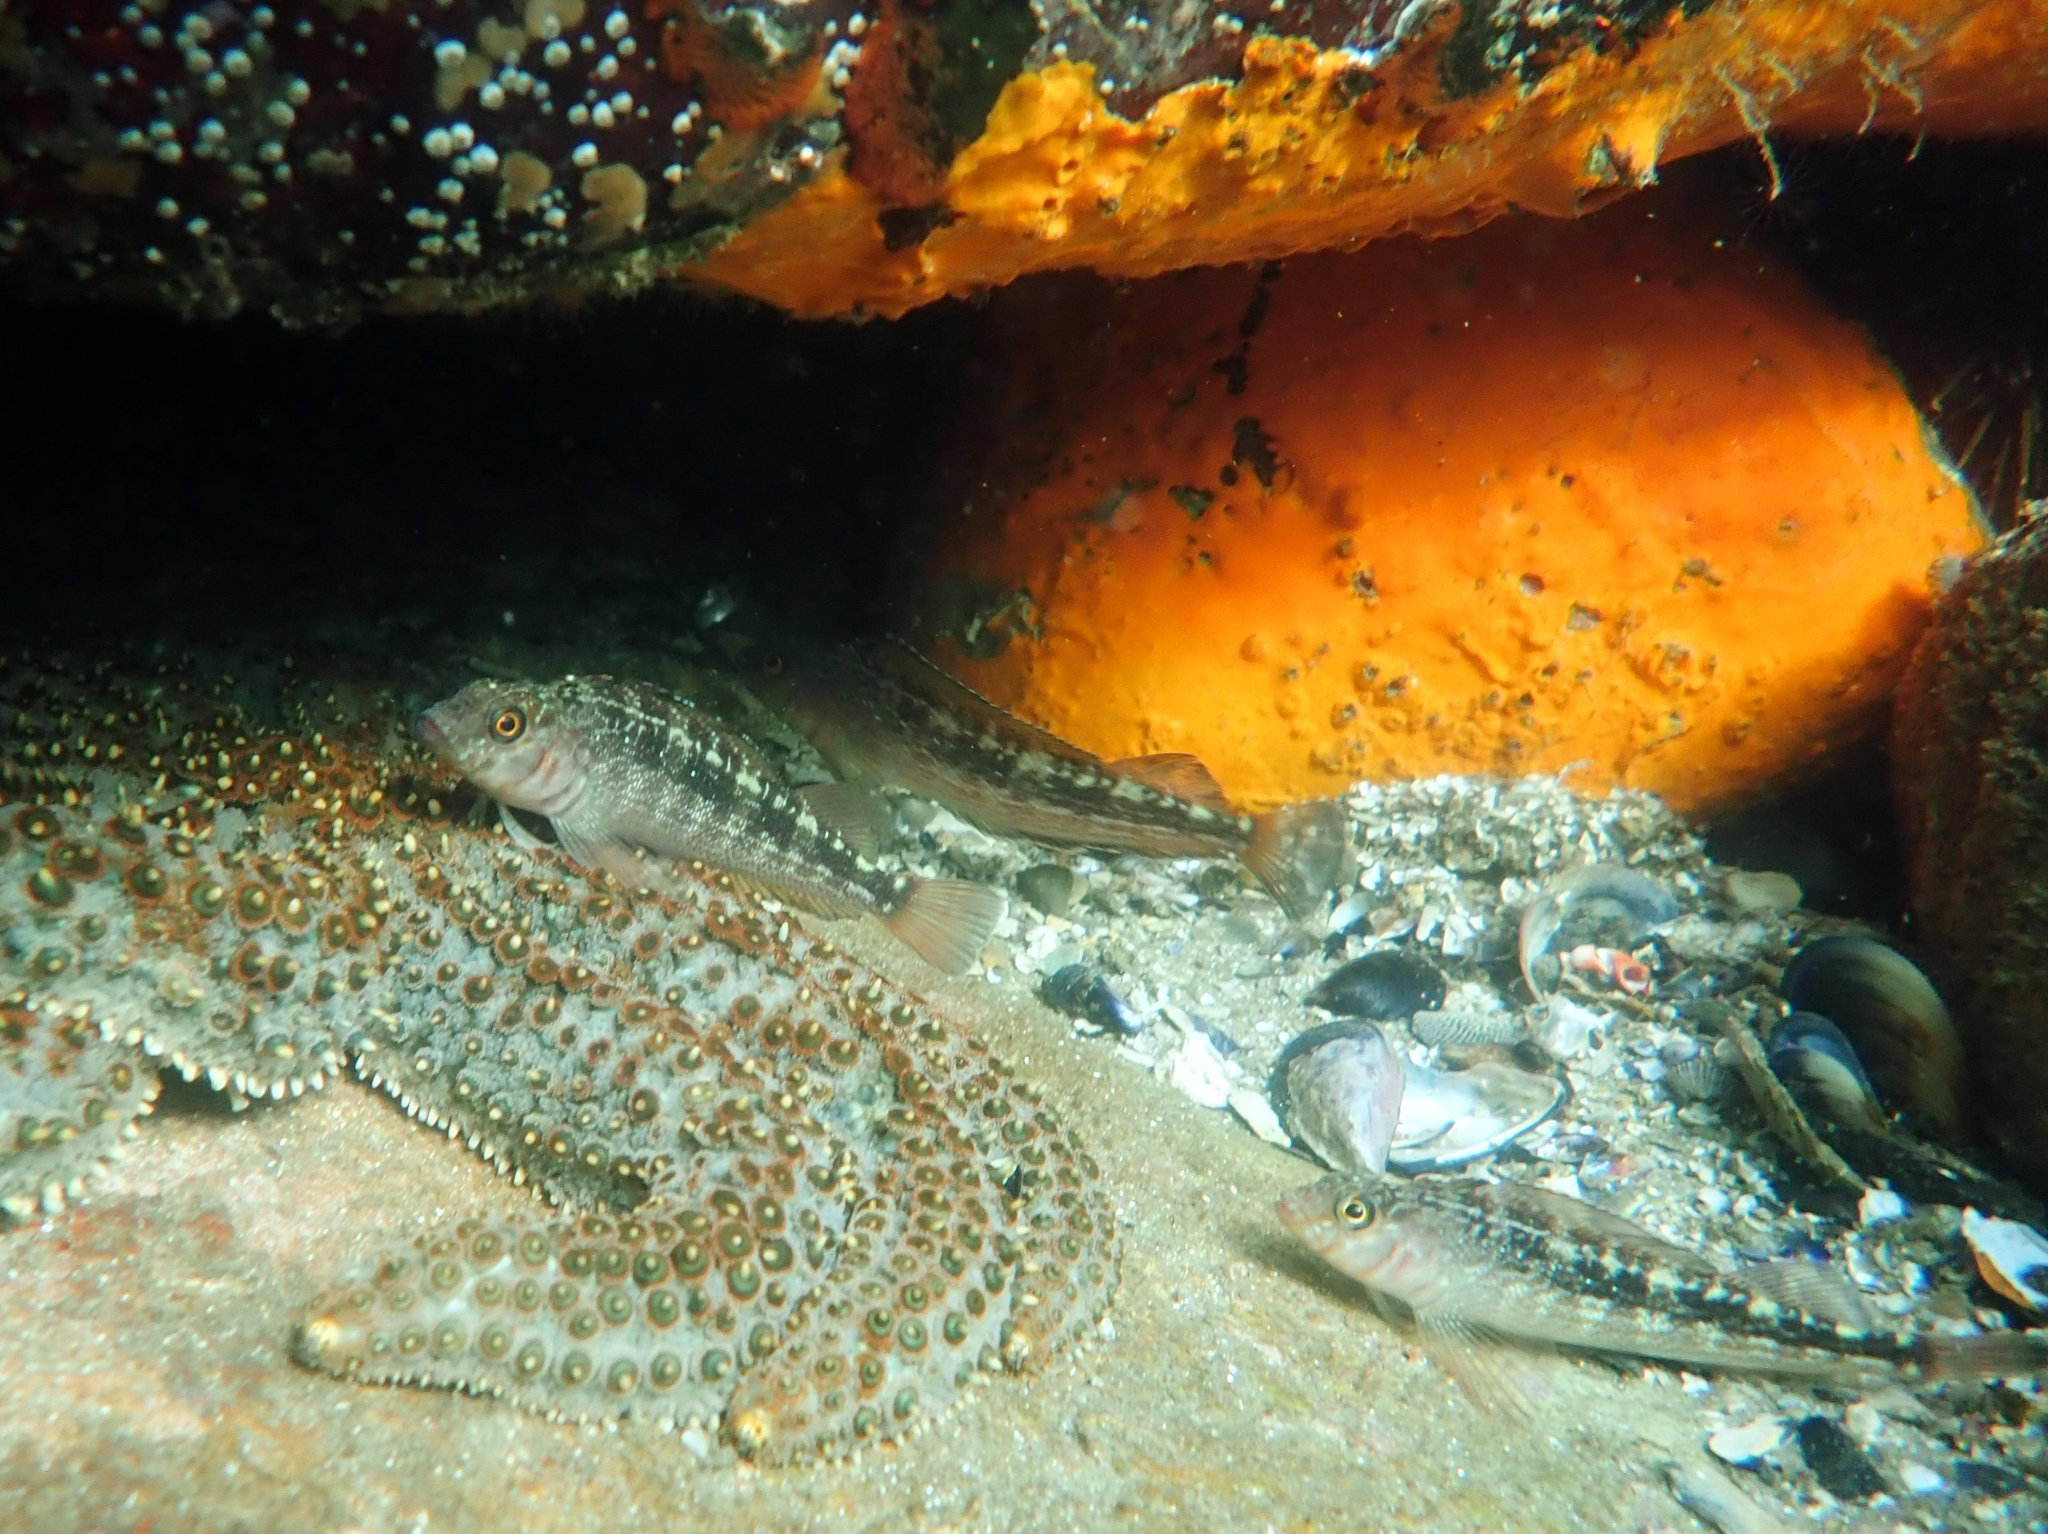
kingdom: Animalia
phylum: Chordata
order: Perciformes
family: Tripterygiidae
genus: Forsterygion
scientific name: Forsterygion varium
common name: Variable triplefin
